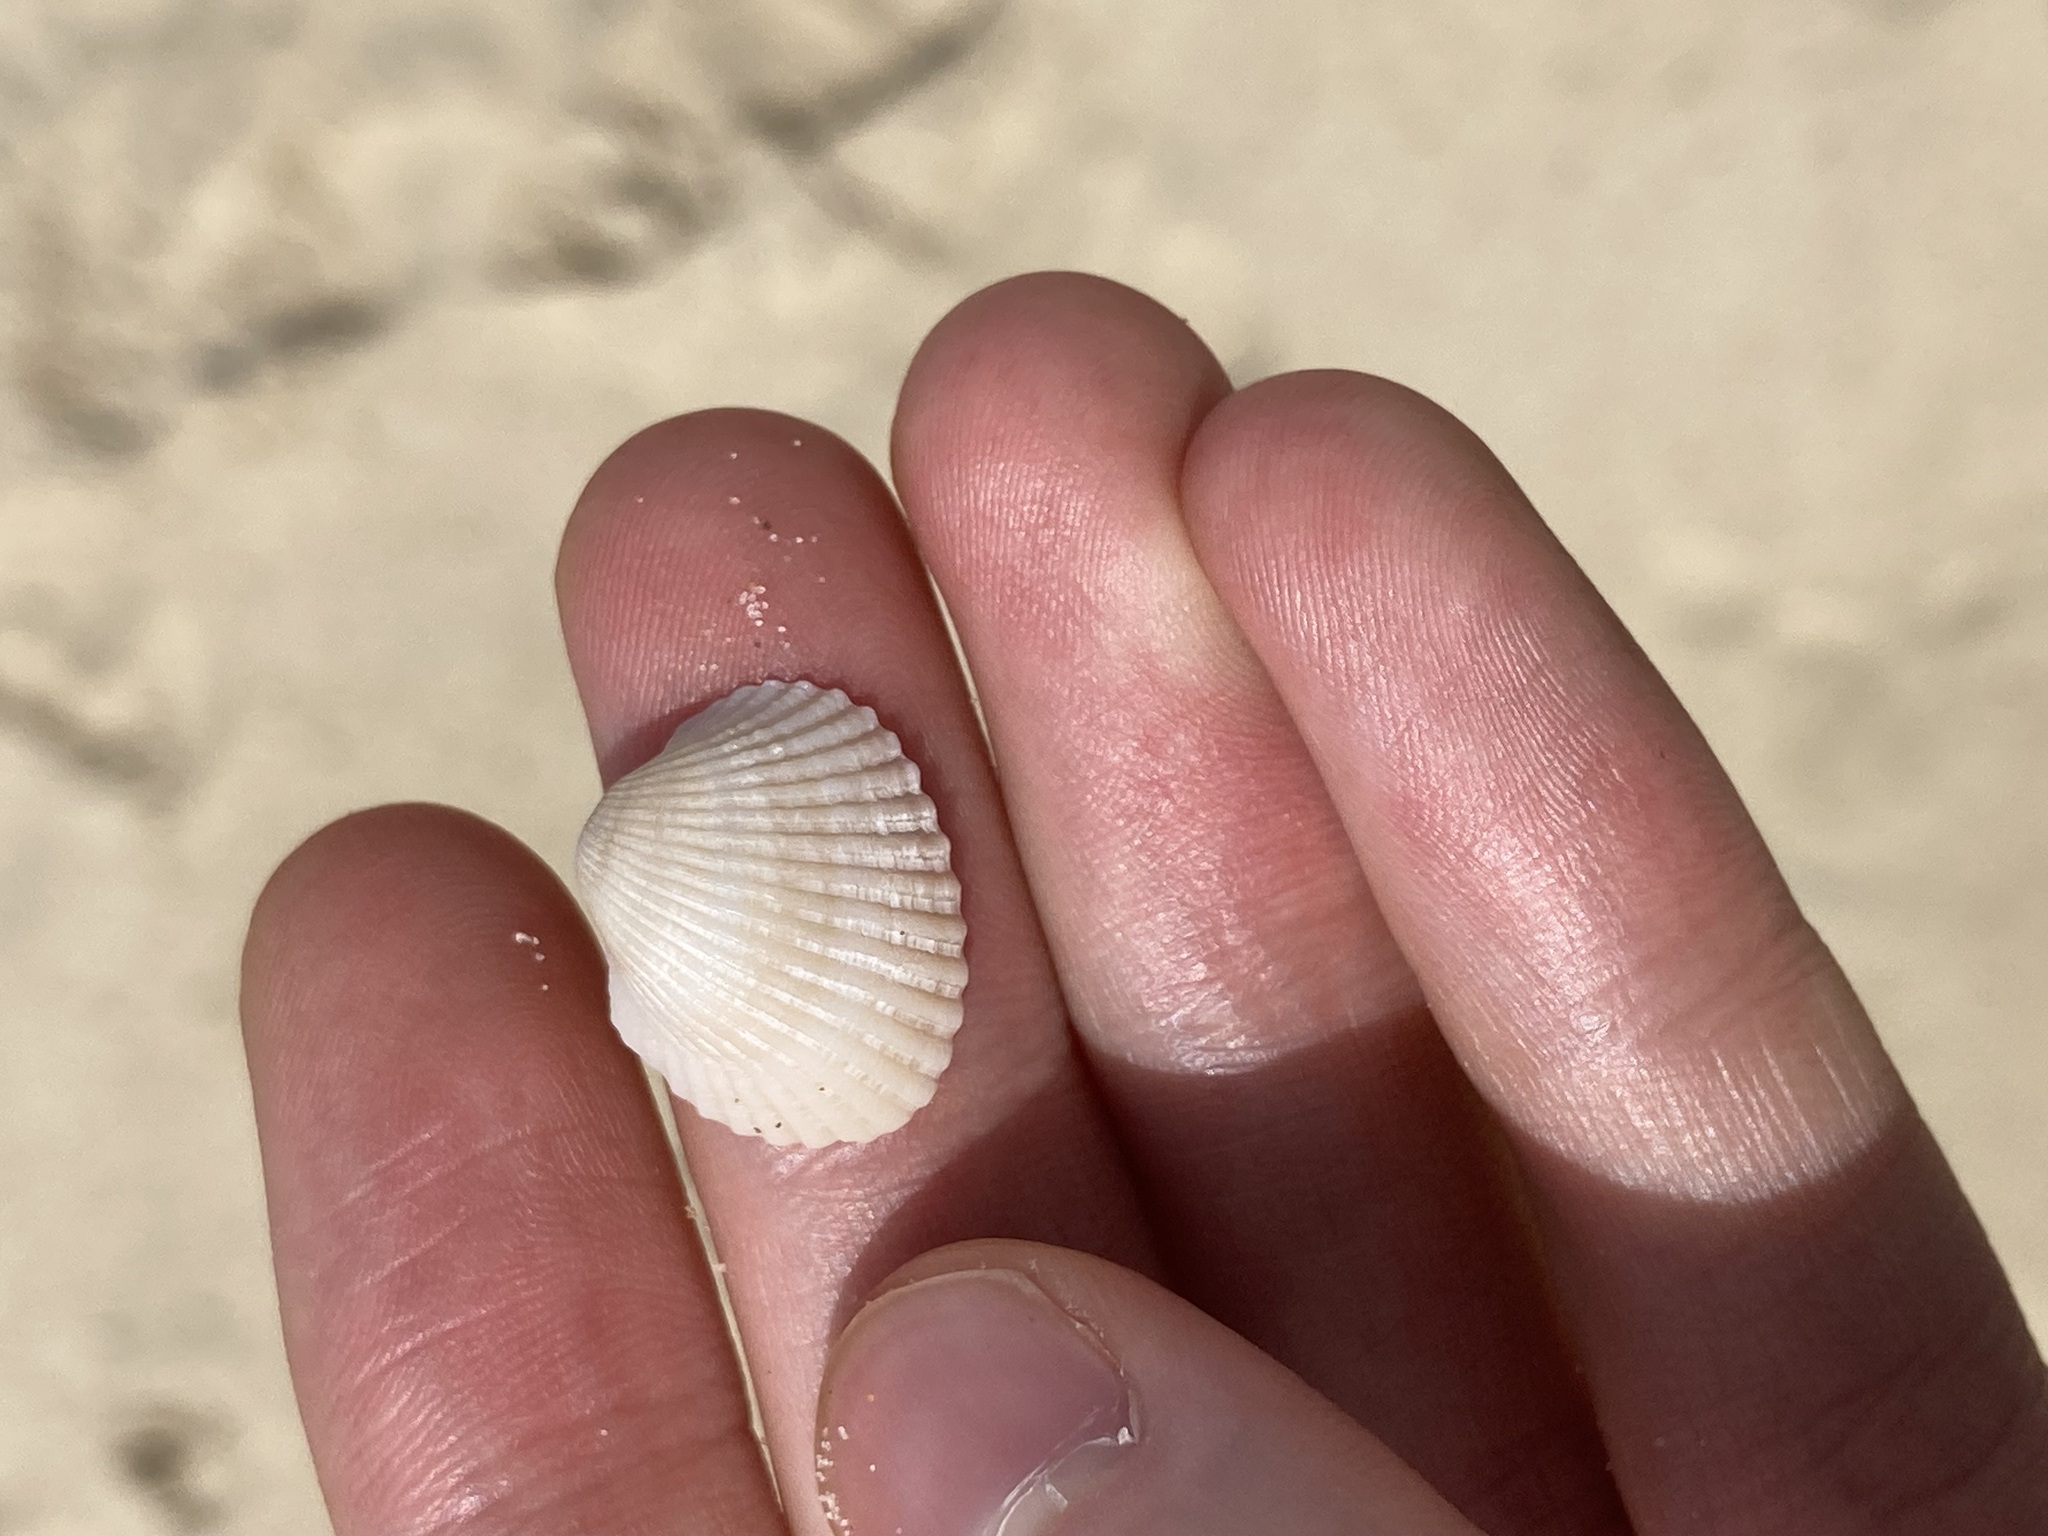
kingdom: Animalia
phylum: Mollusca
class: Bivalvia
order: Arcida
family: Arcidae
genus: Anadara
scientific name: Anadara trapezia
